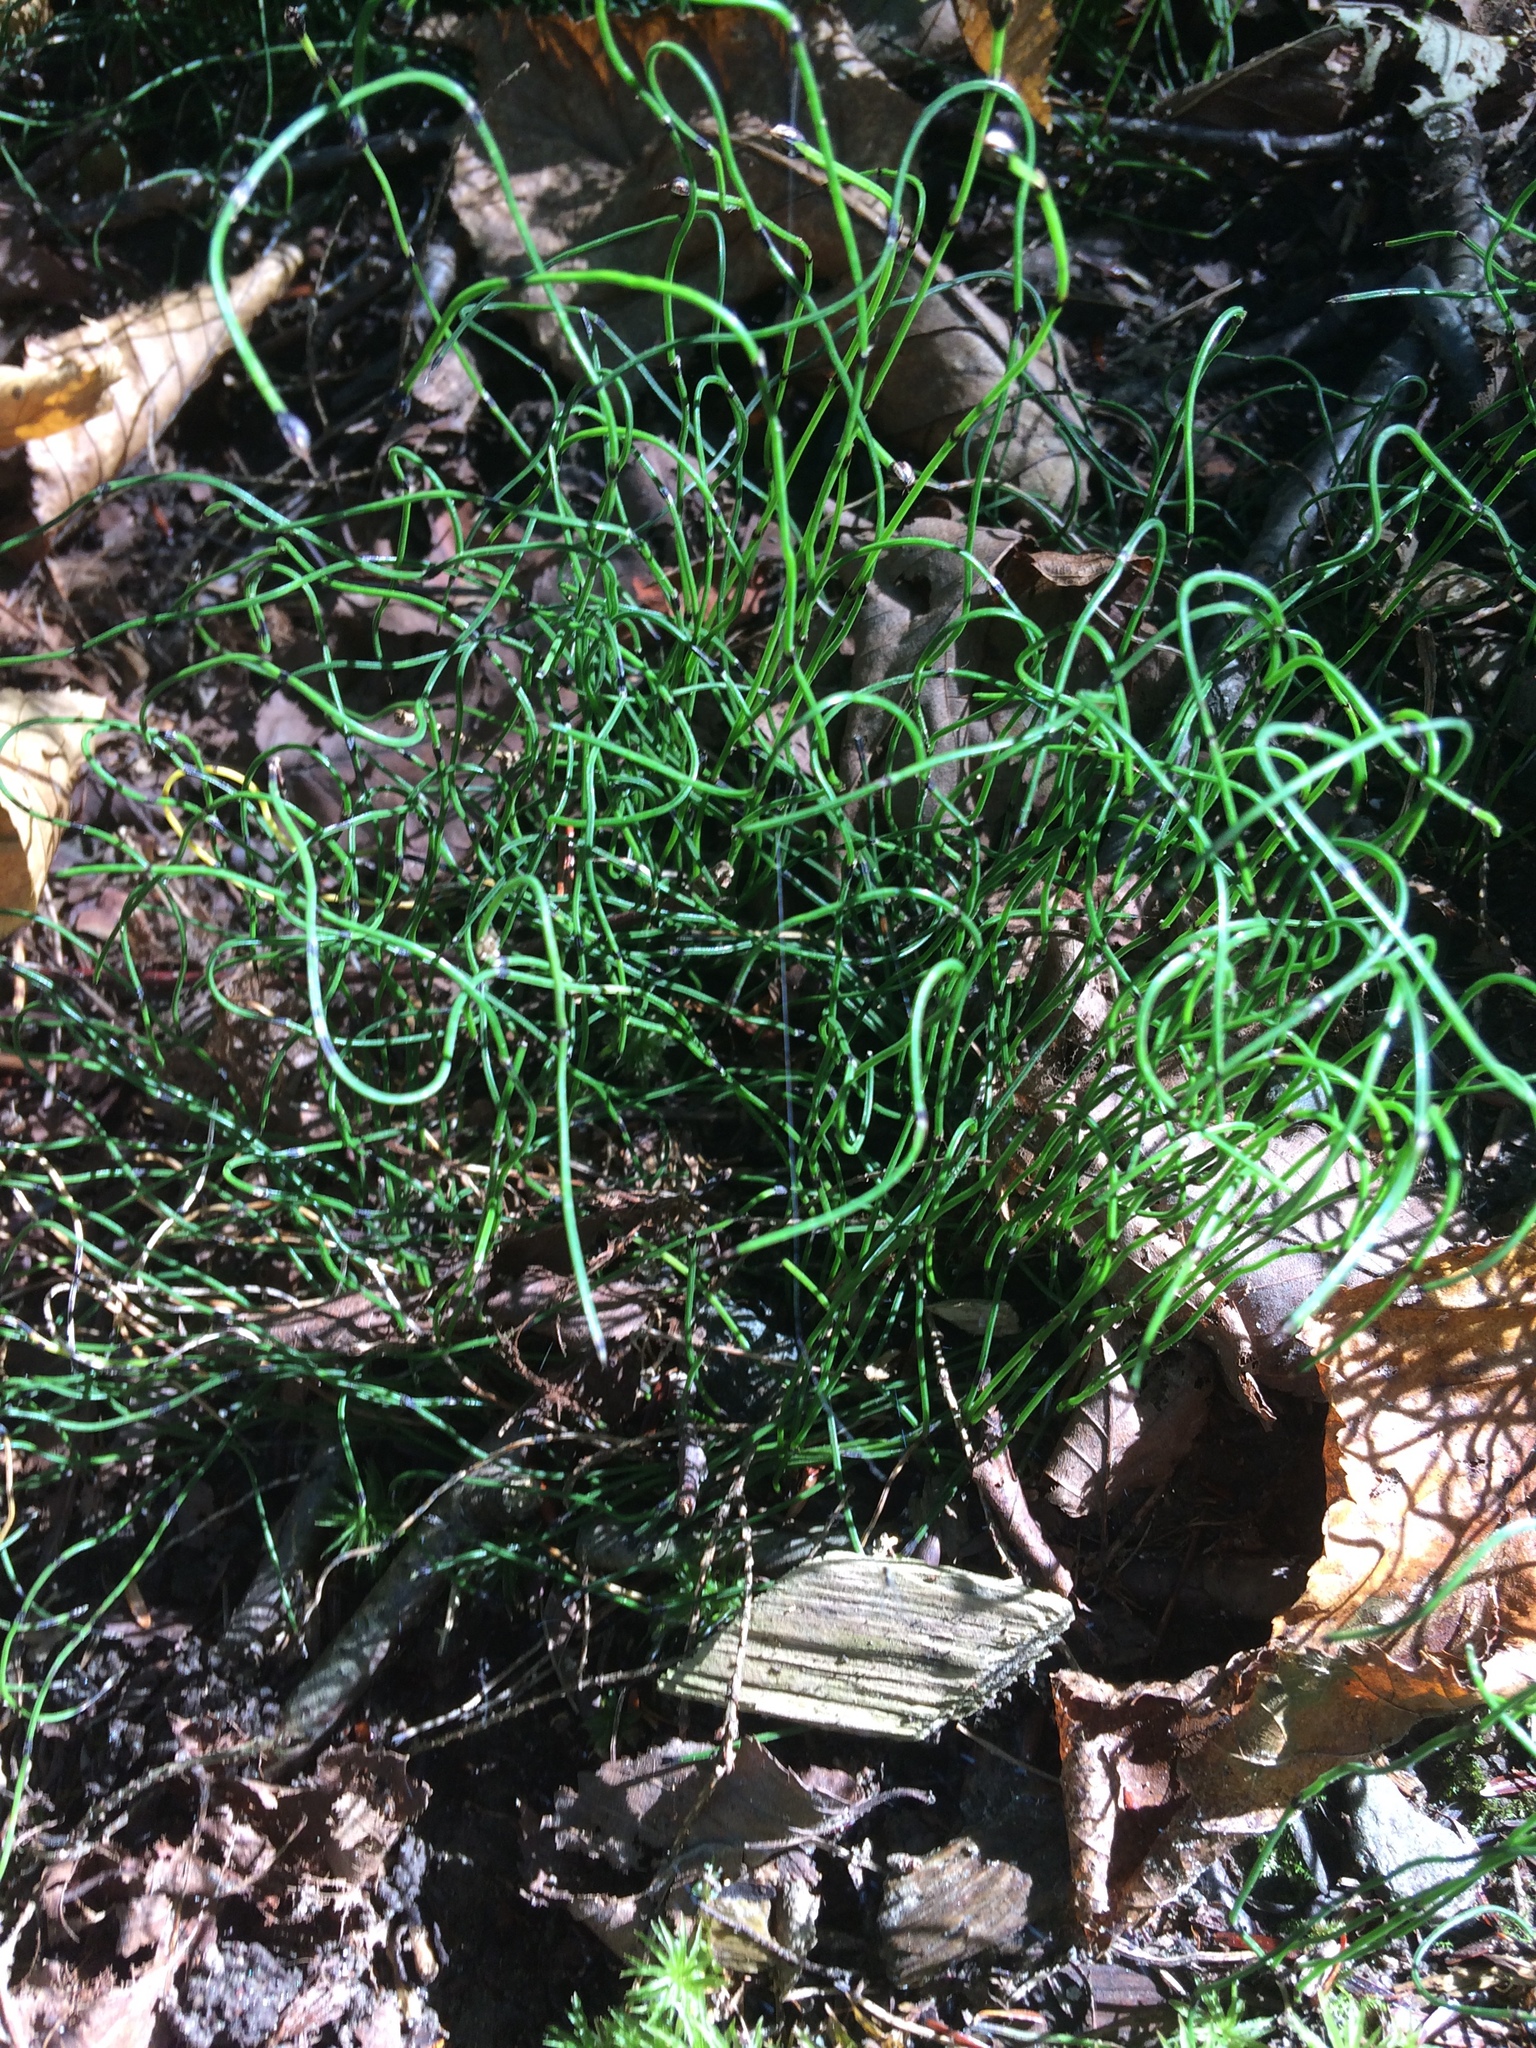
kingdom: Plantae
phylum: Tracheophyta
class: Polypodiopsida
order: Equisetales
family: Equisetaceae
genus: Equisetum
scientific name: Equisetum scirpoides
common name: Delicate horsetail
